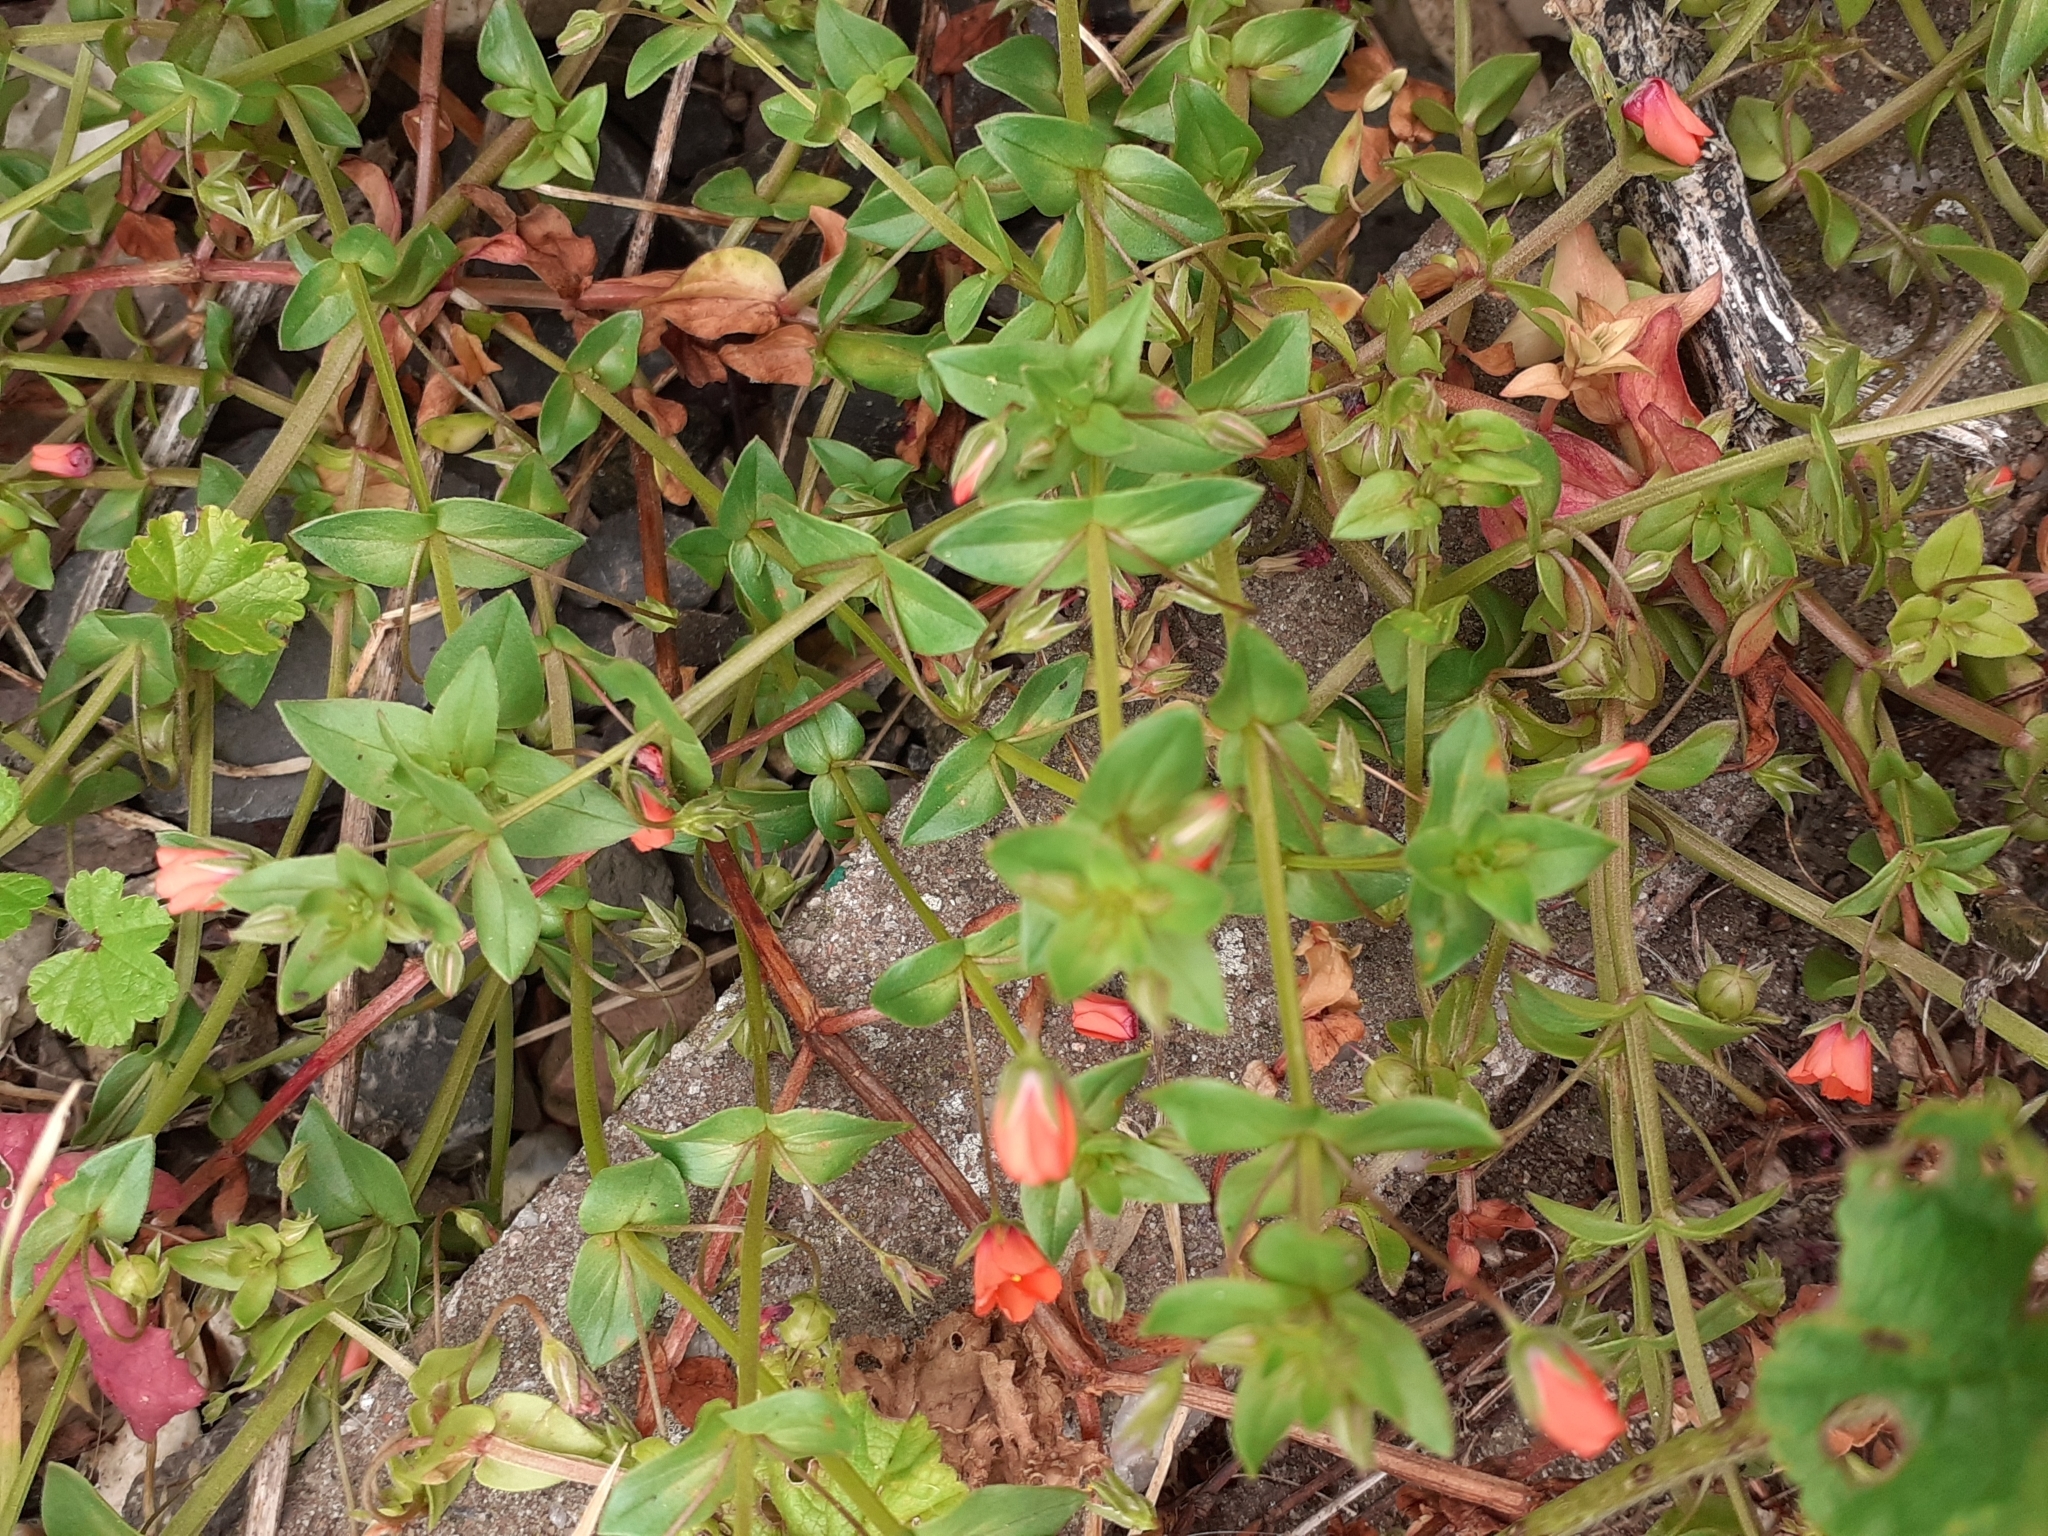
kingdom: Plantae
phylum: Tracheophyta
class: Magnoliopsida
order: Ericales
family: Primulaceae
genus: Lysimachia
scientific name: Lysimachia arvensis
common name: Scarlet pimpernel
